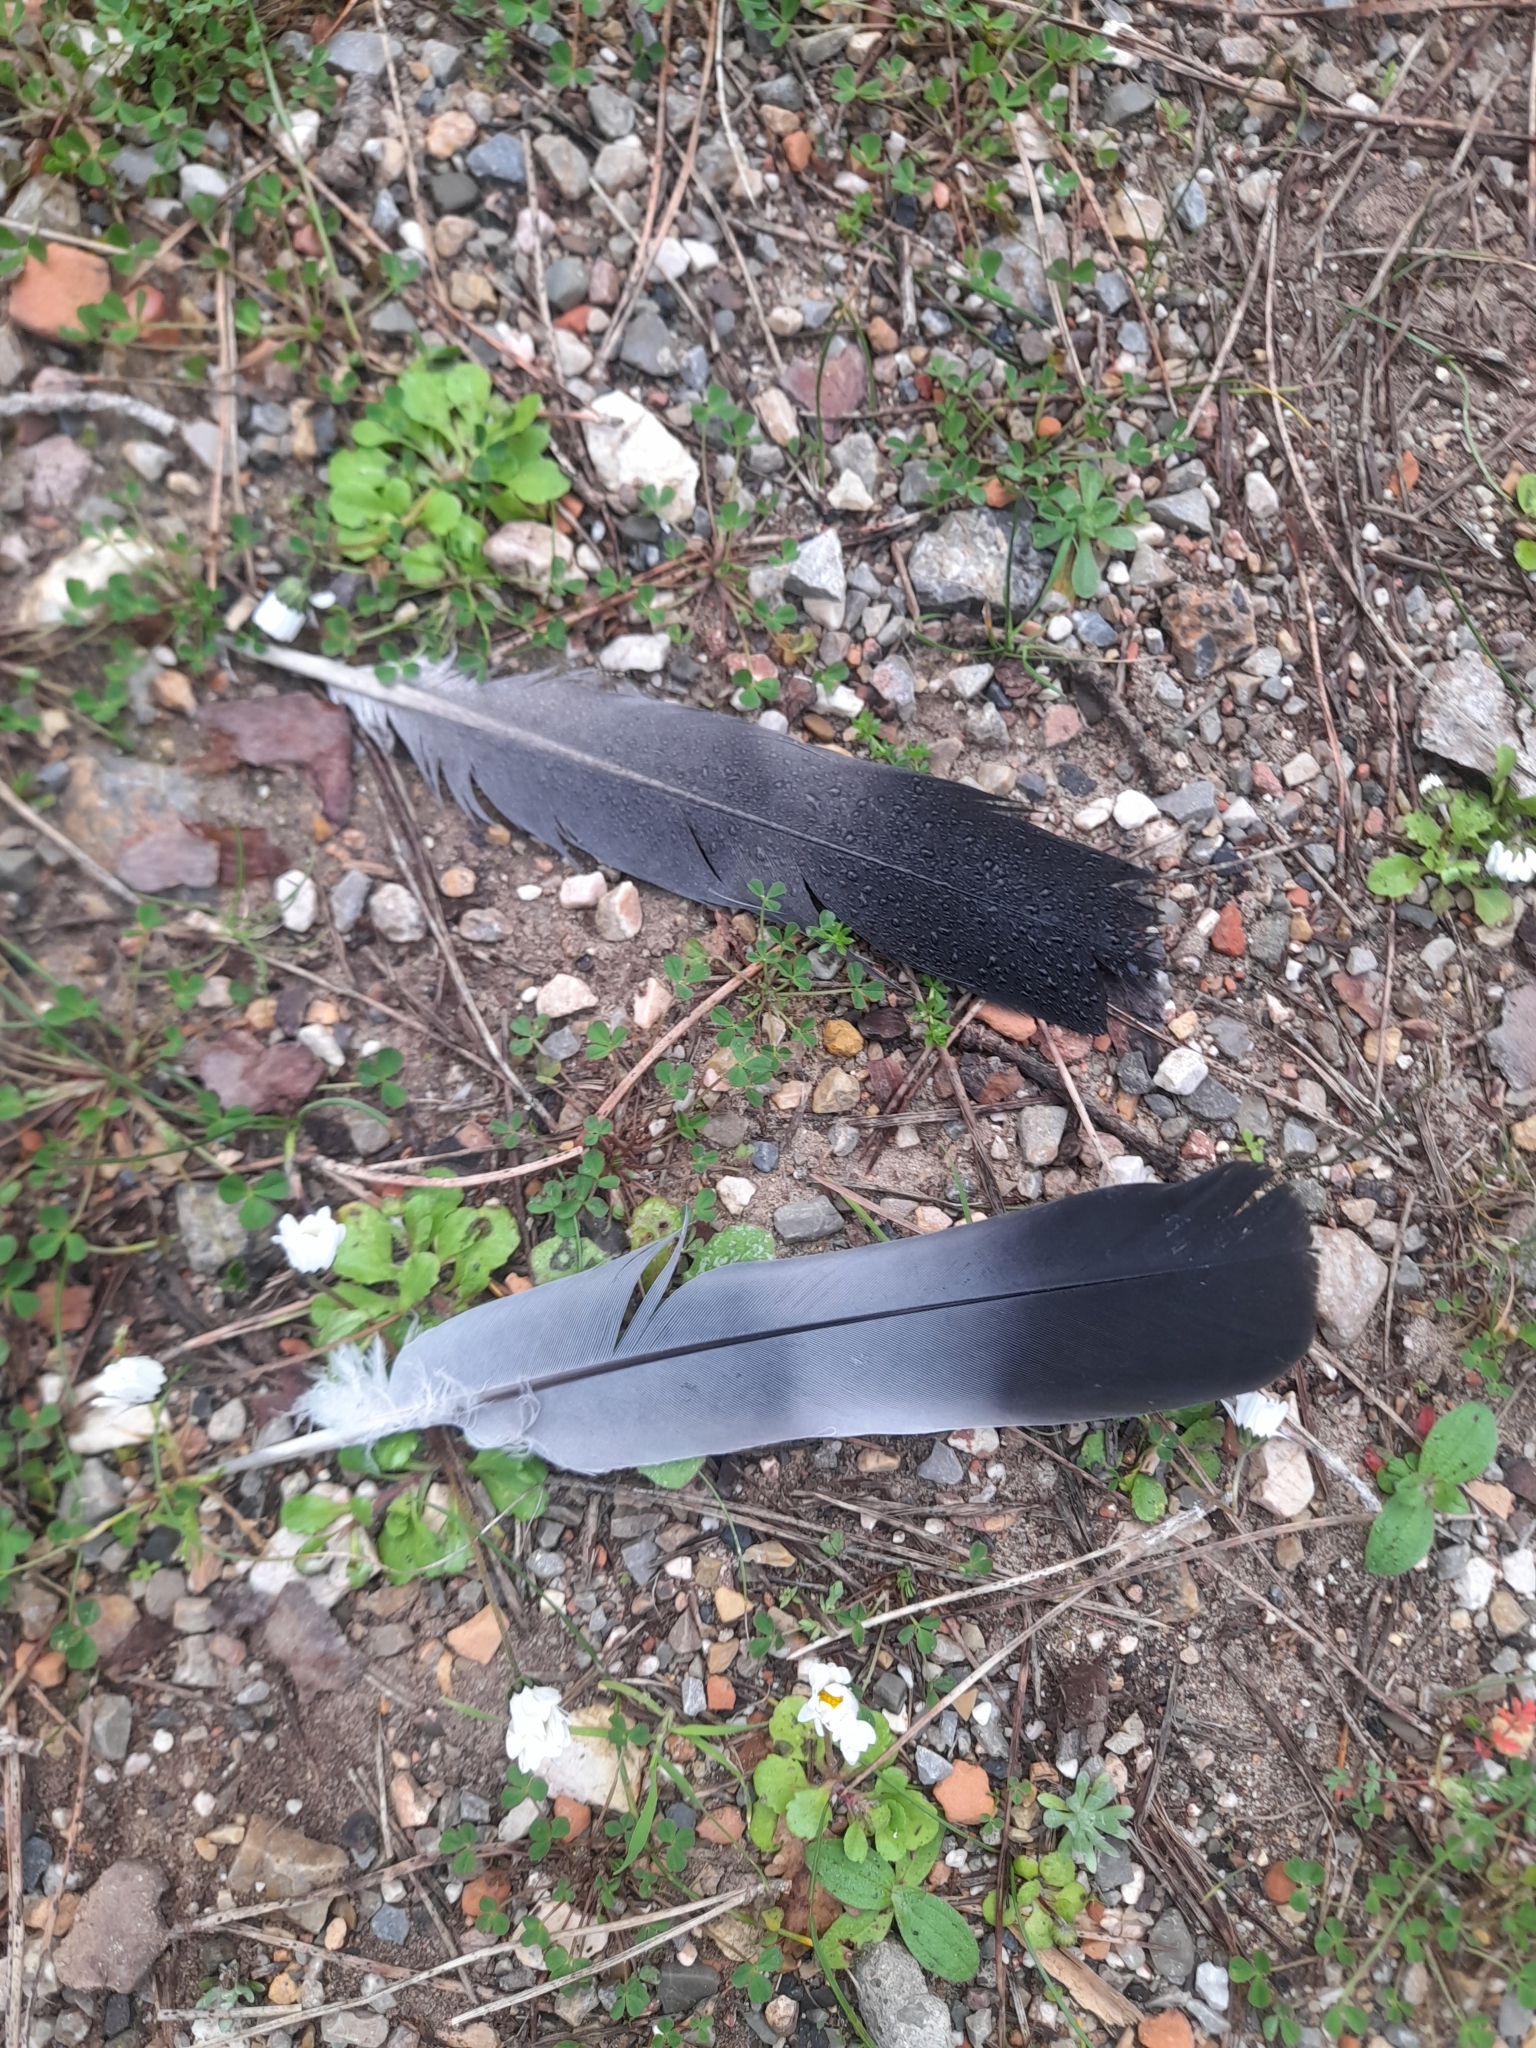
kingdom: Animalia
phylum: Chordata
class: Aves
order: Columbiformes
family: Columbidae
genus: Columba
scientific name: Columba palumbus
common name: Common wood pigeon
